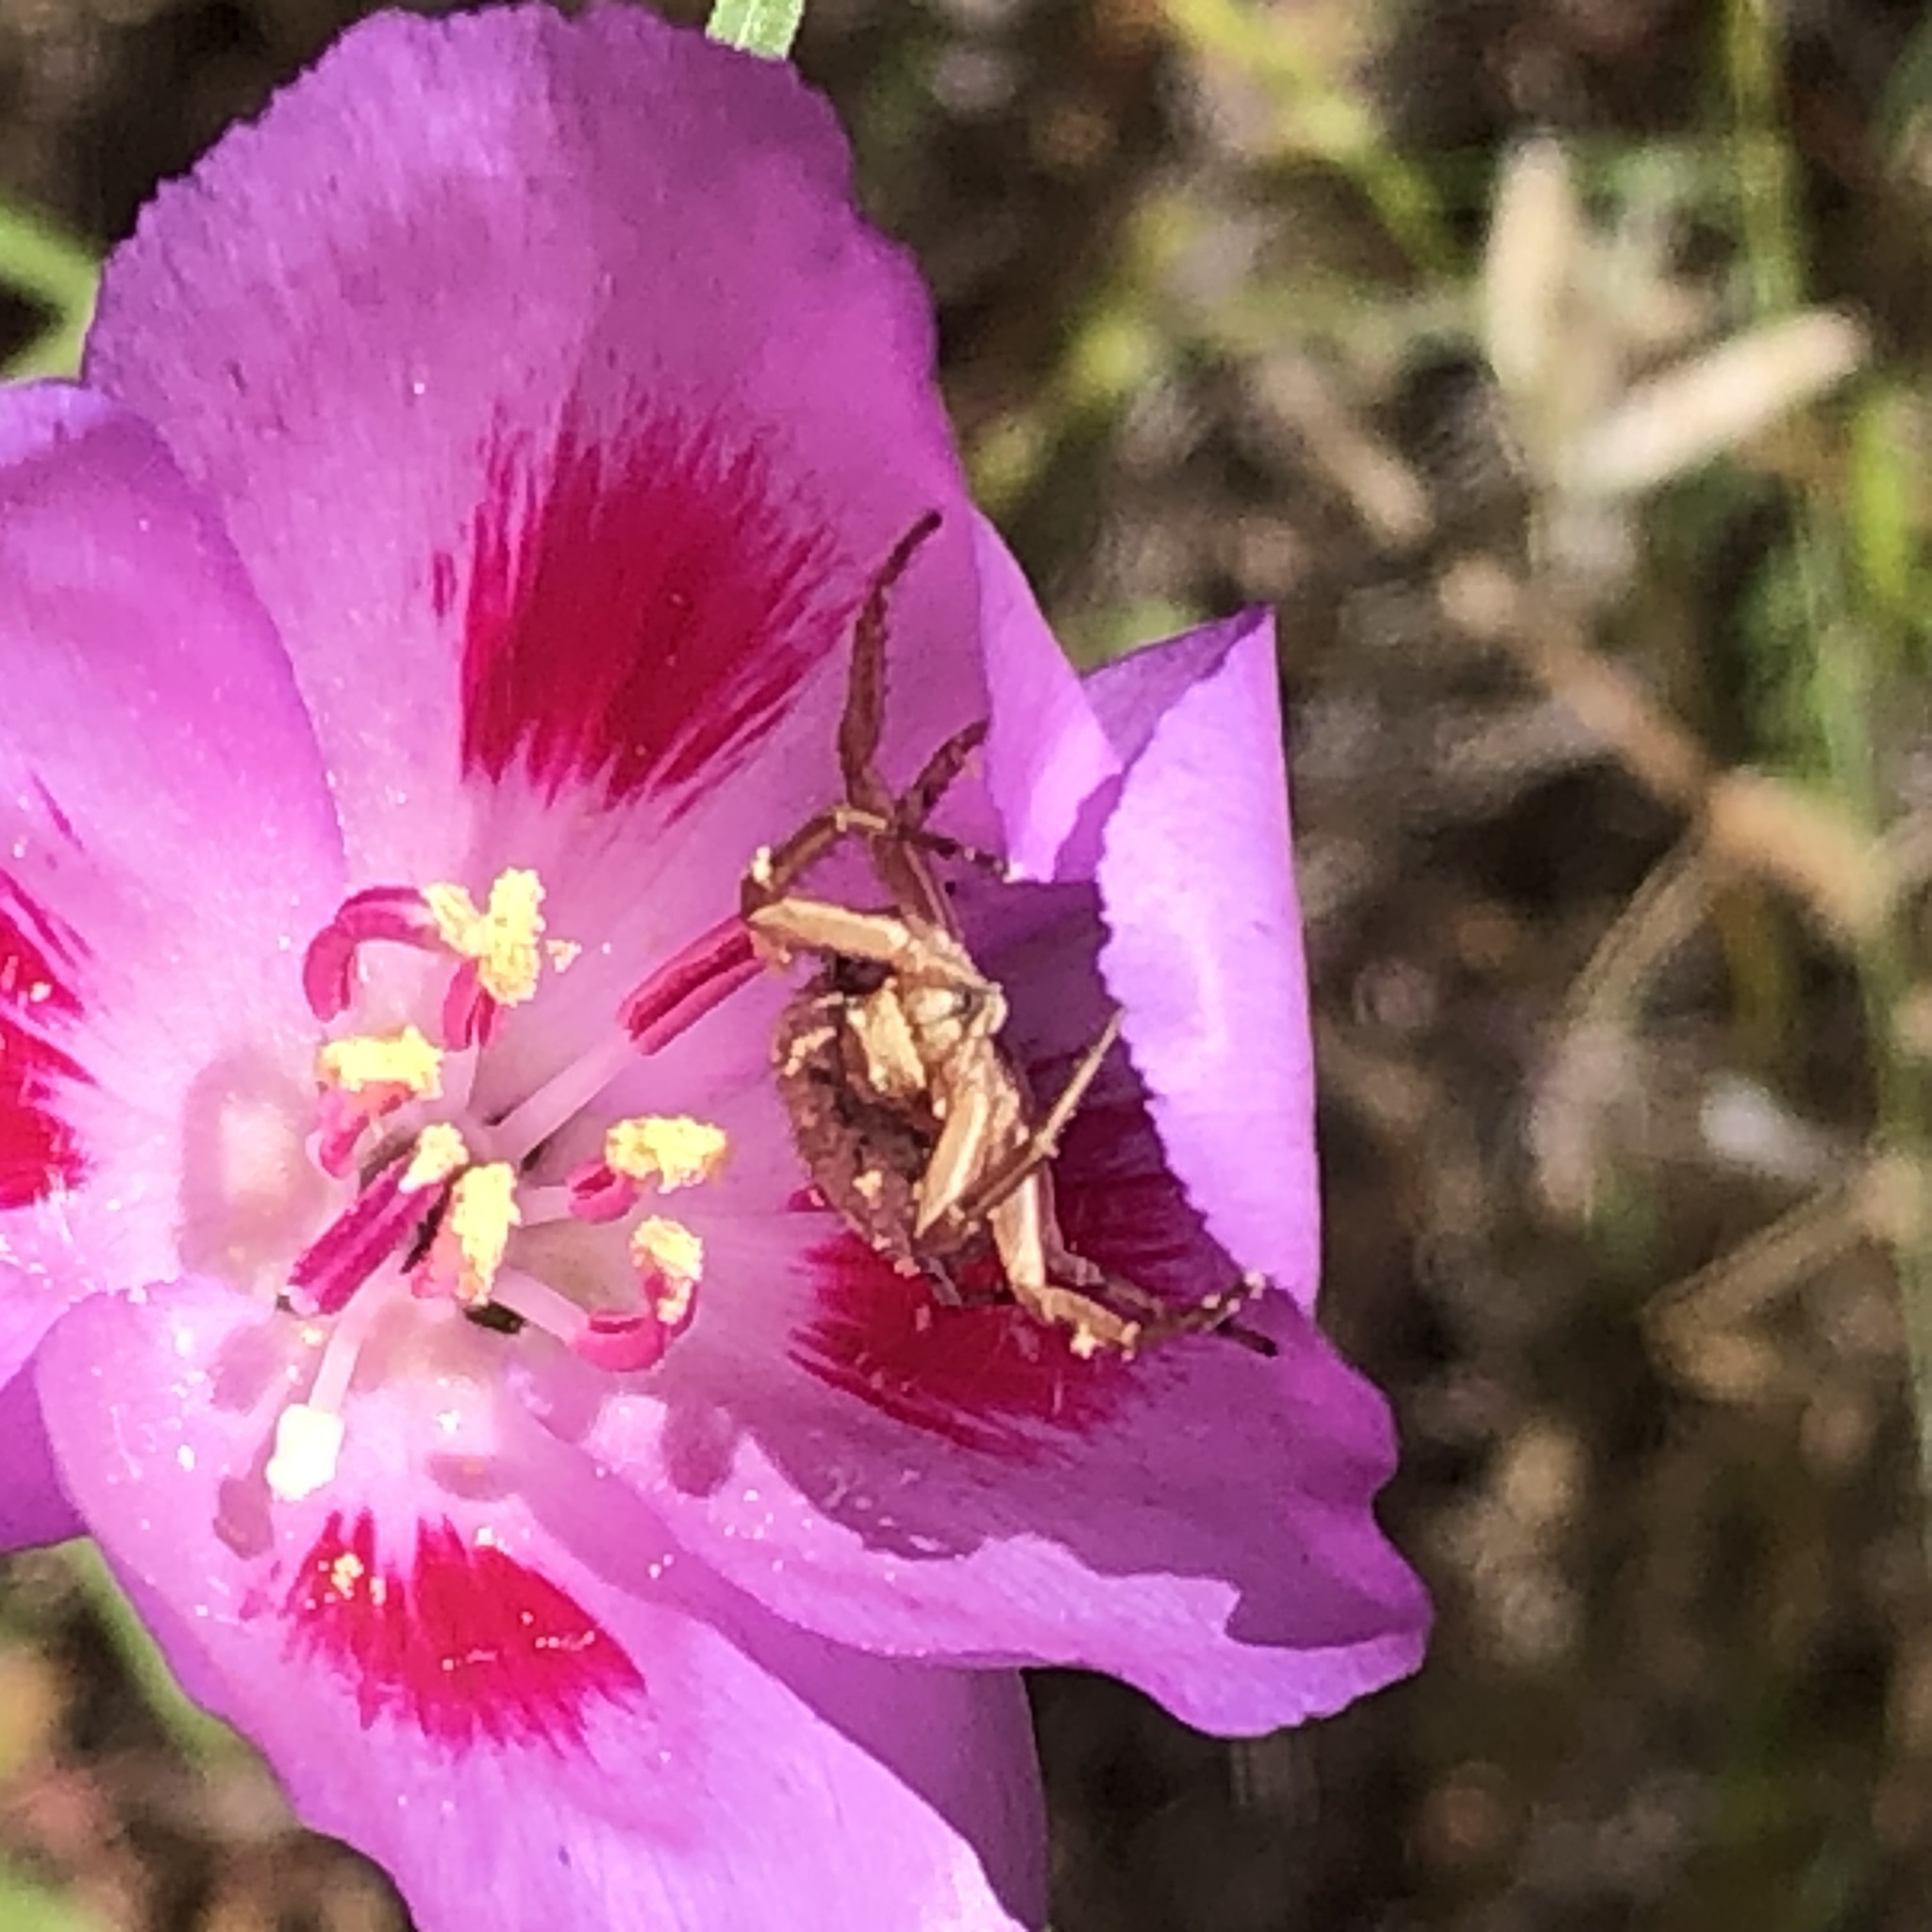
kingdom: Plantae
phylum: Tracheophyta
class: Magnoliopsida
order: Myrtales
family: Onagraceae
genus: Clarkia
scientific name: Clarkia amoena
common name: Godetia
